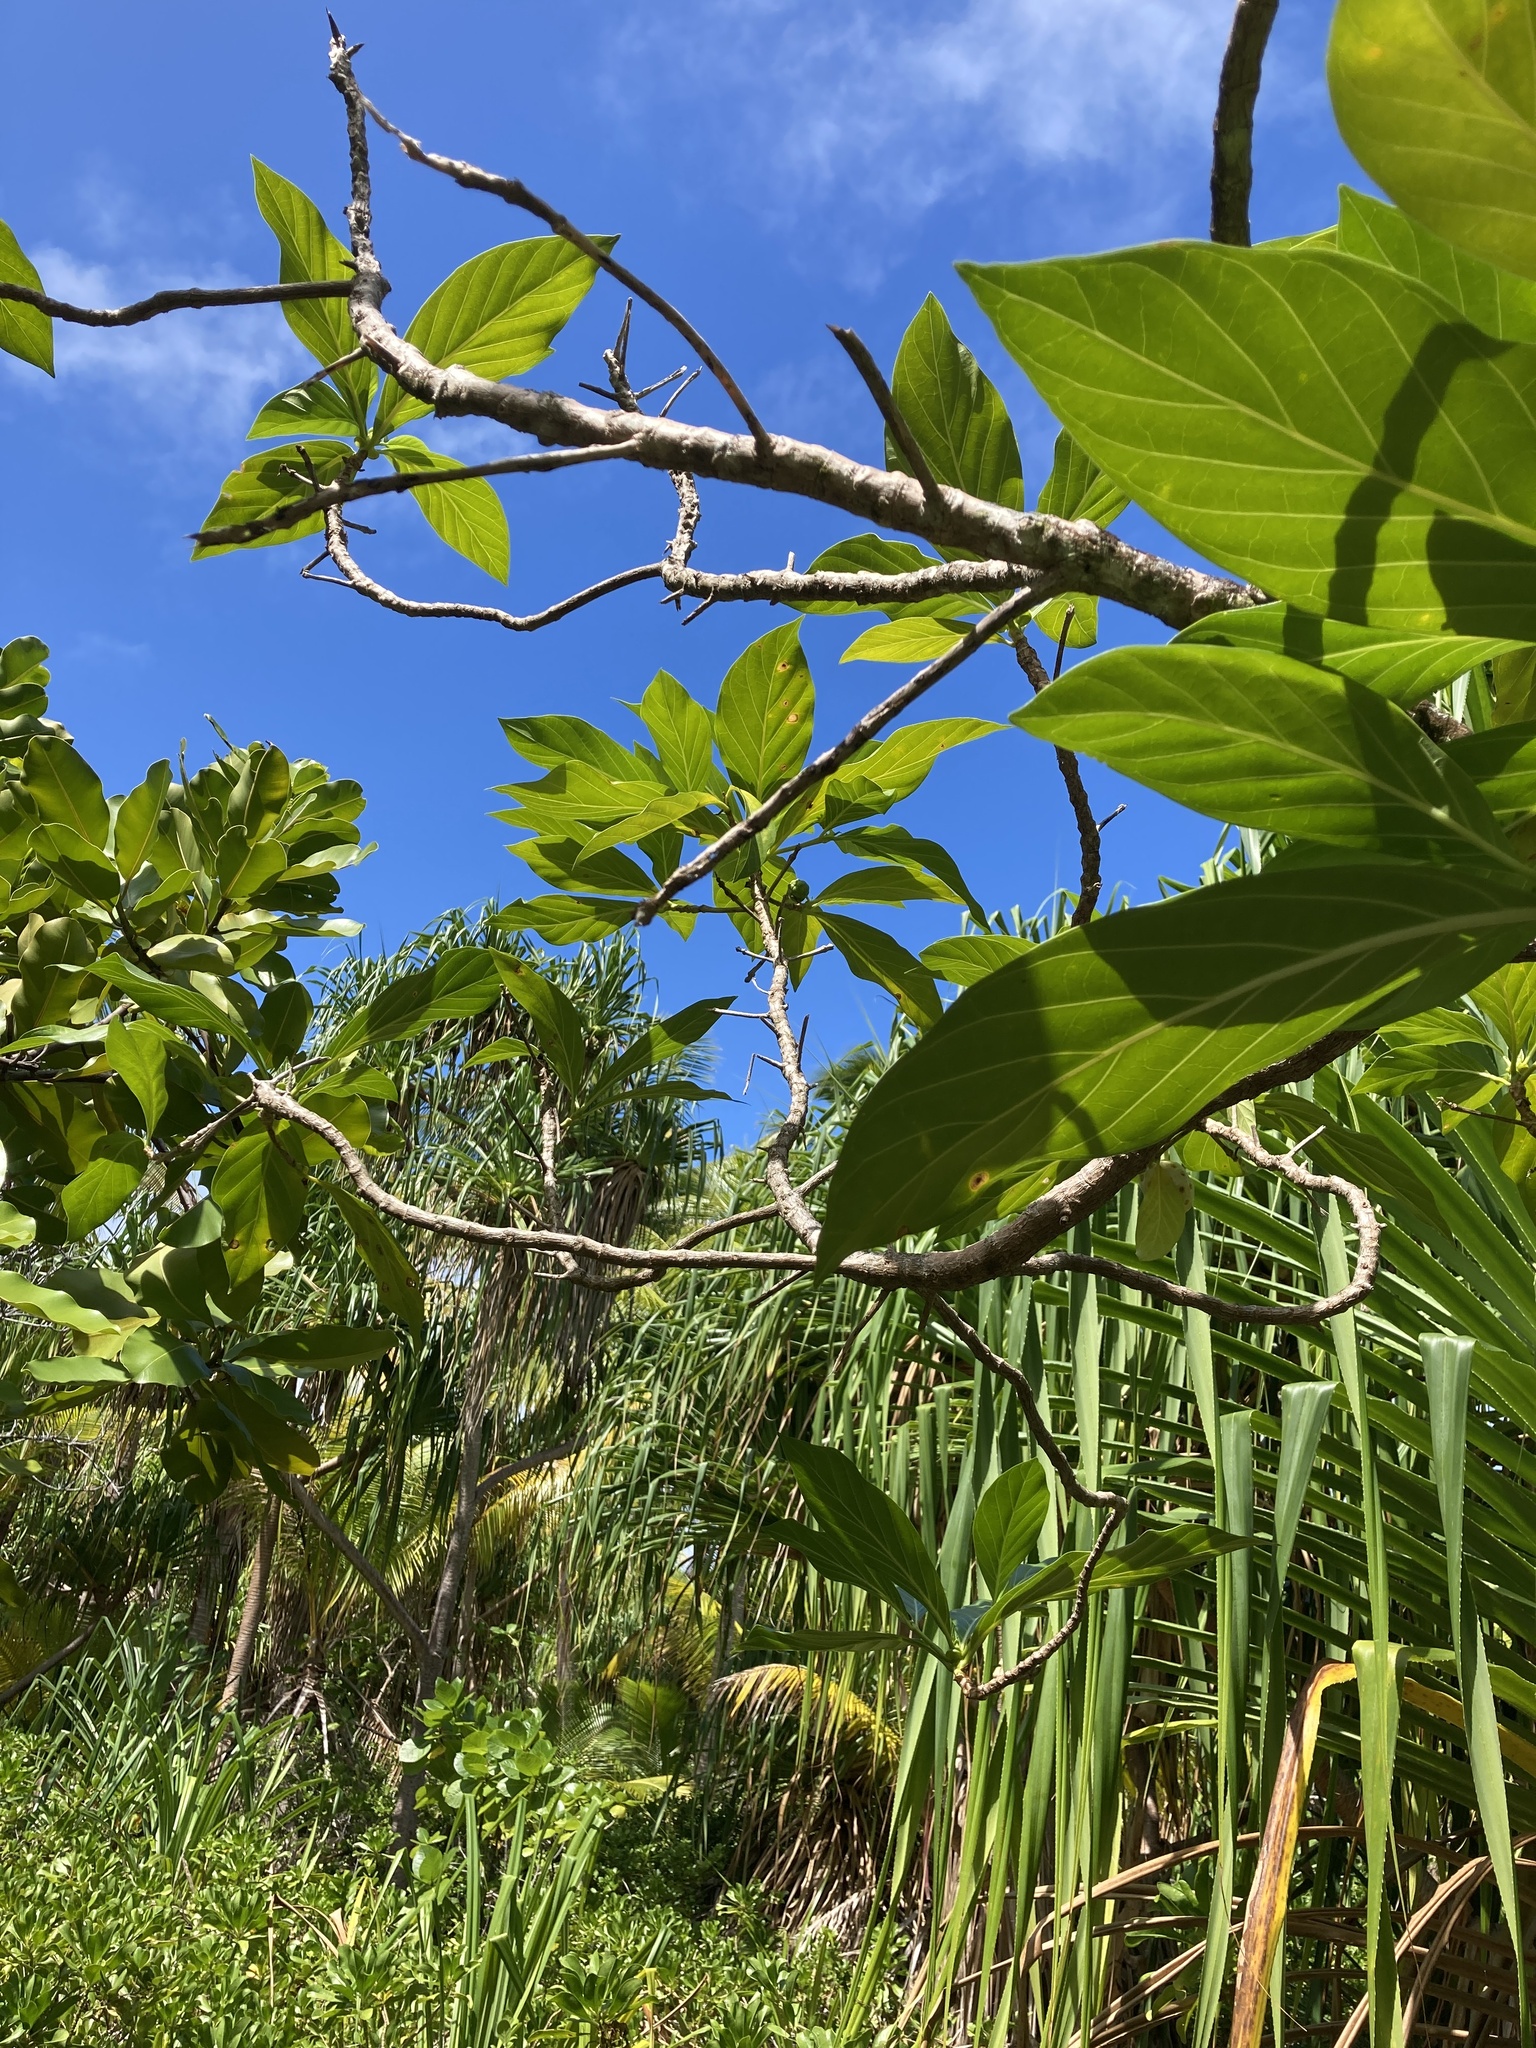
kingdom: Plantae
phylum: Tracheophyta
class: Magnoliopsida
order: Gentianales
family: Rubiaceae
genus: Morinda
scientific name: Morinda citrifolia
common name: Indian-mulberry
